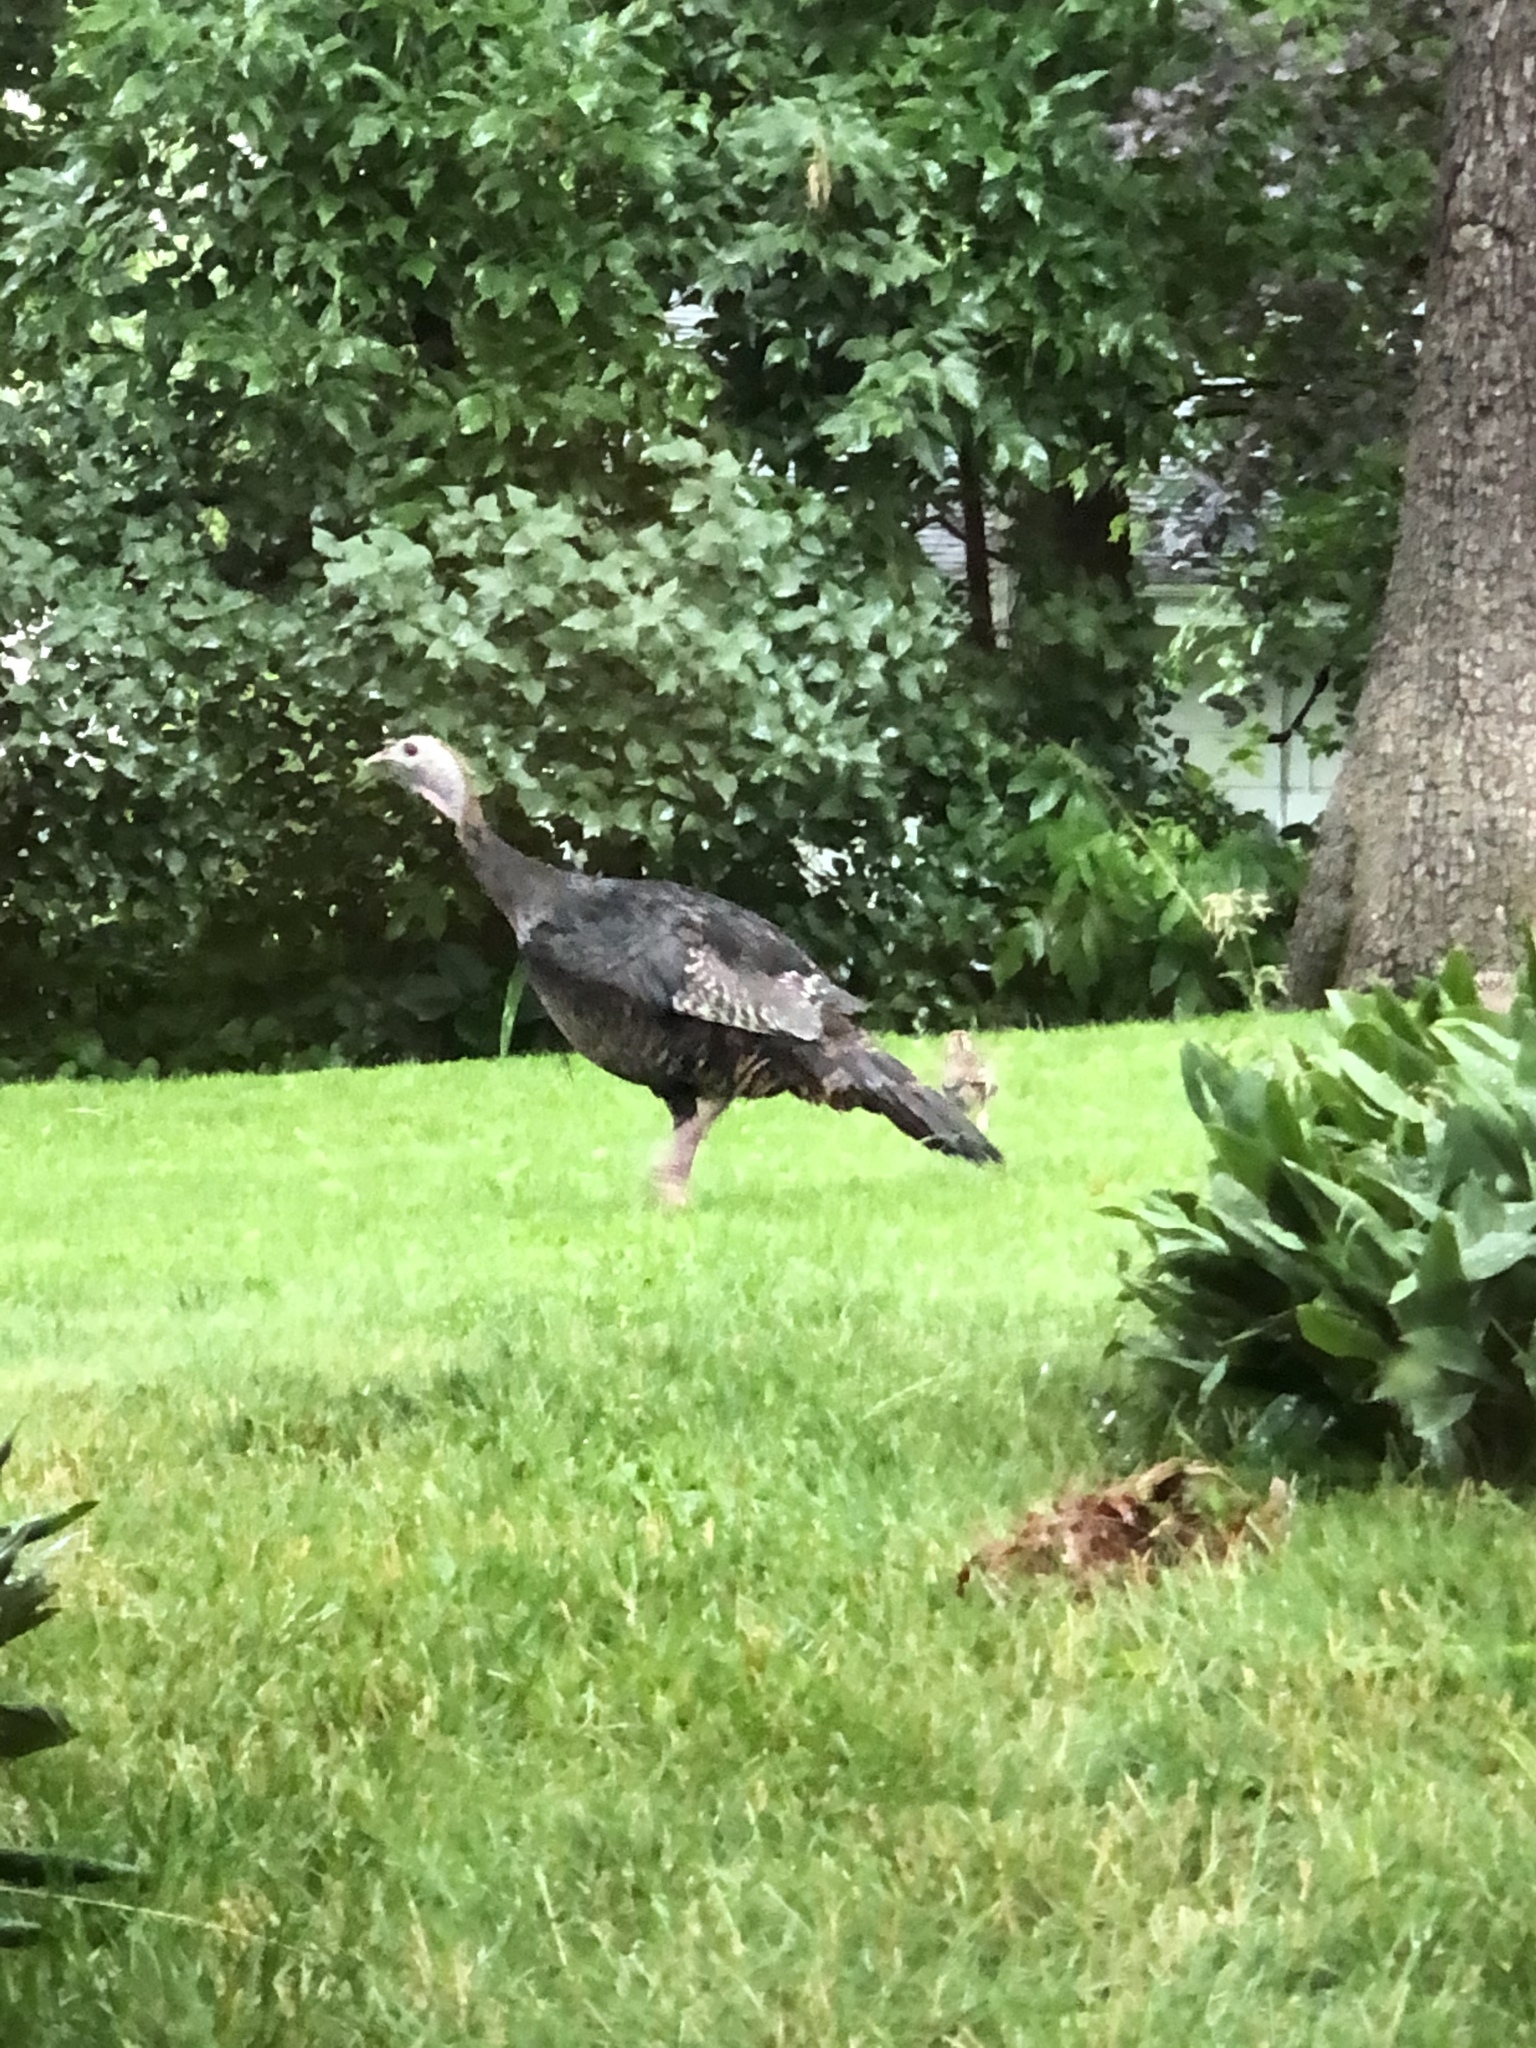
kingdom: Animalia
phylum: Chordata
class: Aves
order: Galliformes
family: Phasianidae
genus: Meleagris
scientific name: Meleagris gallopavo
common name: Wild turkey
